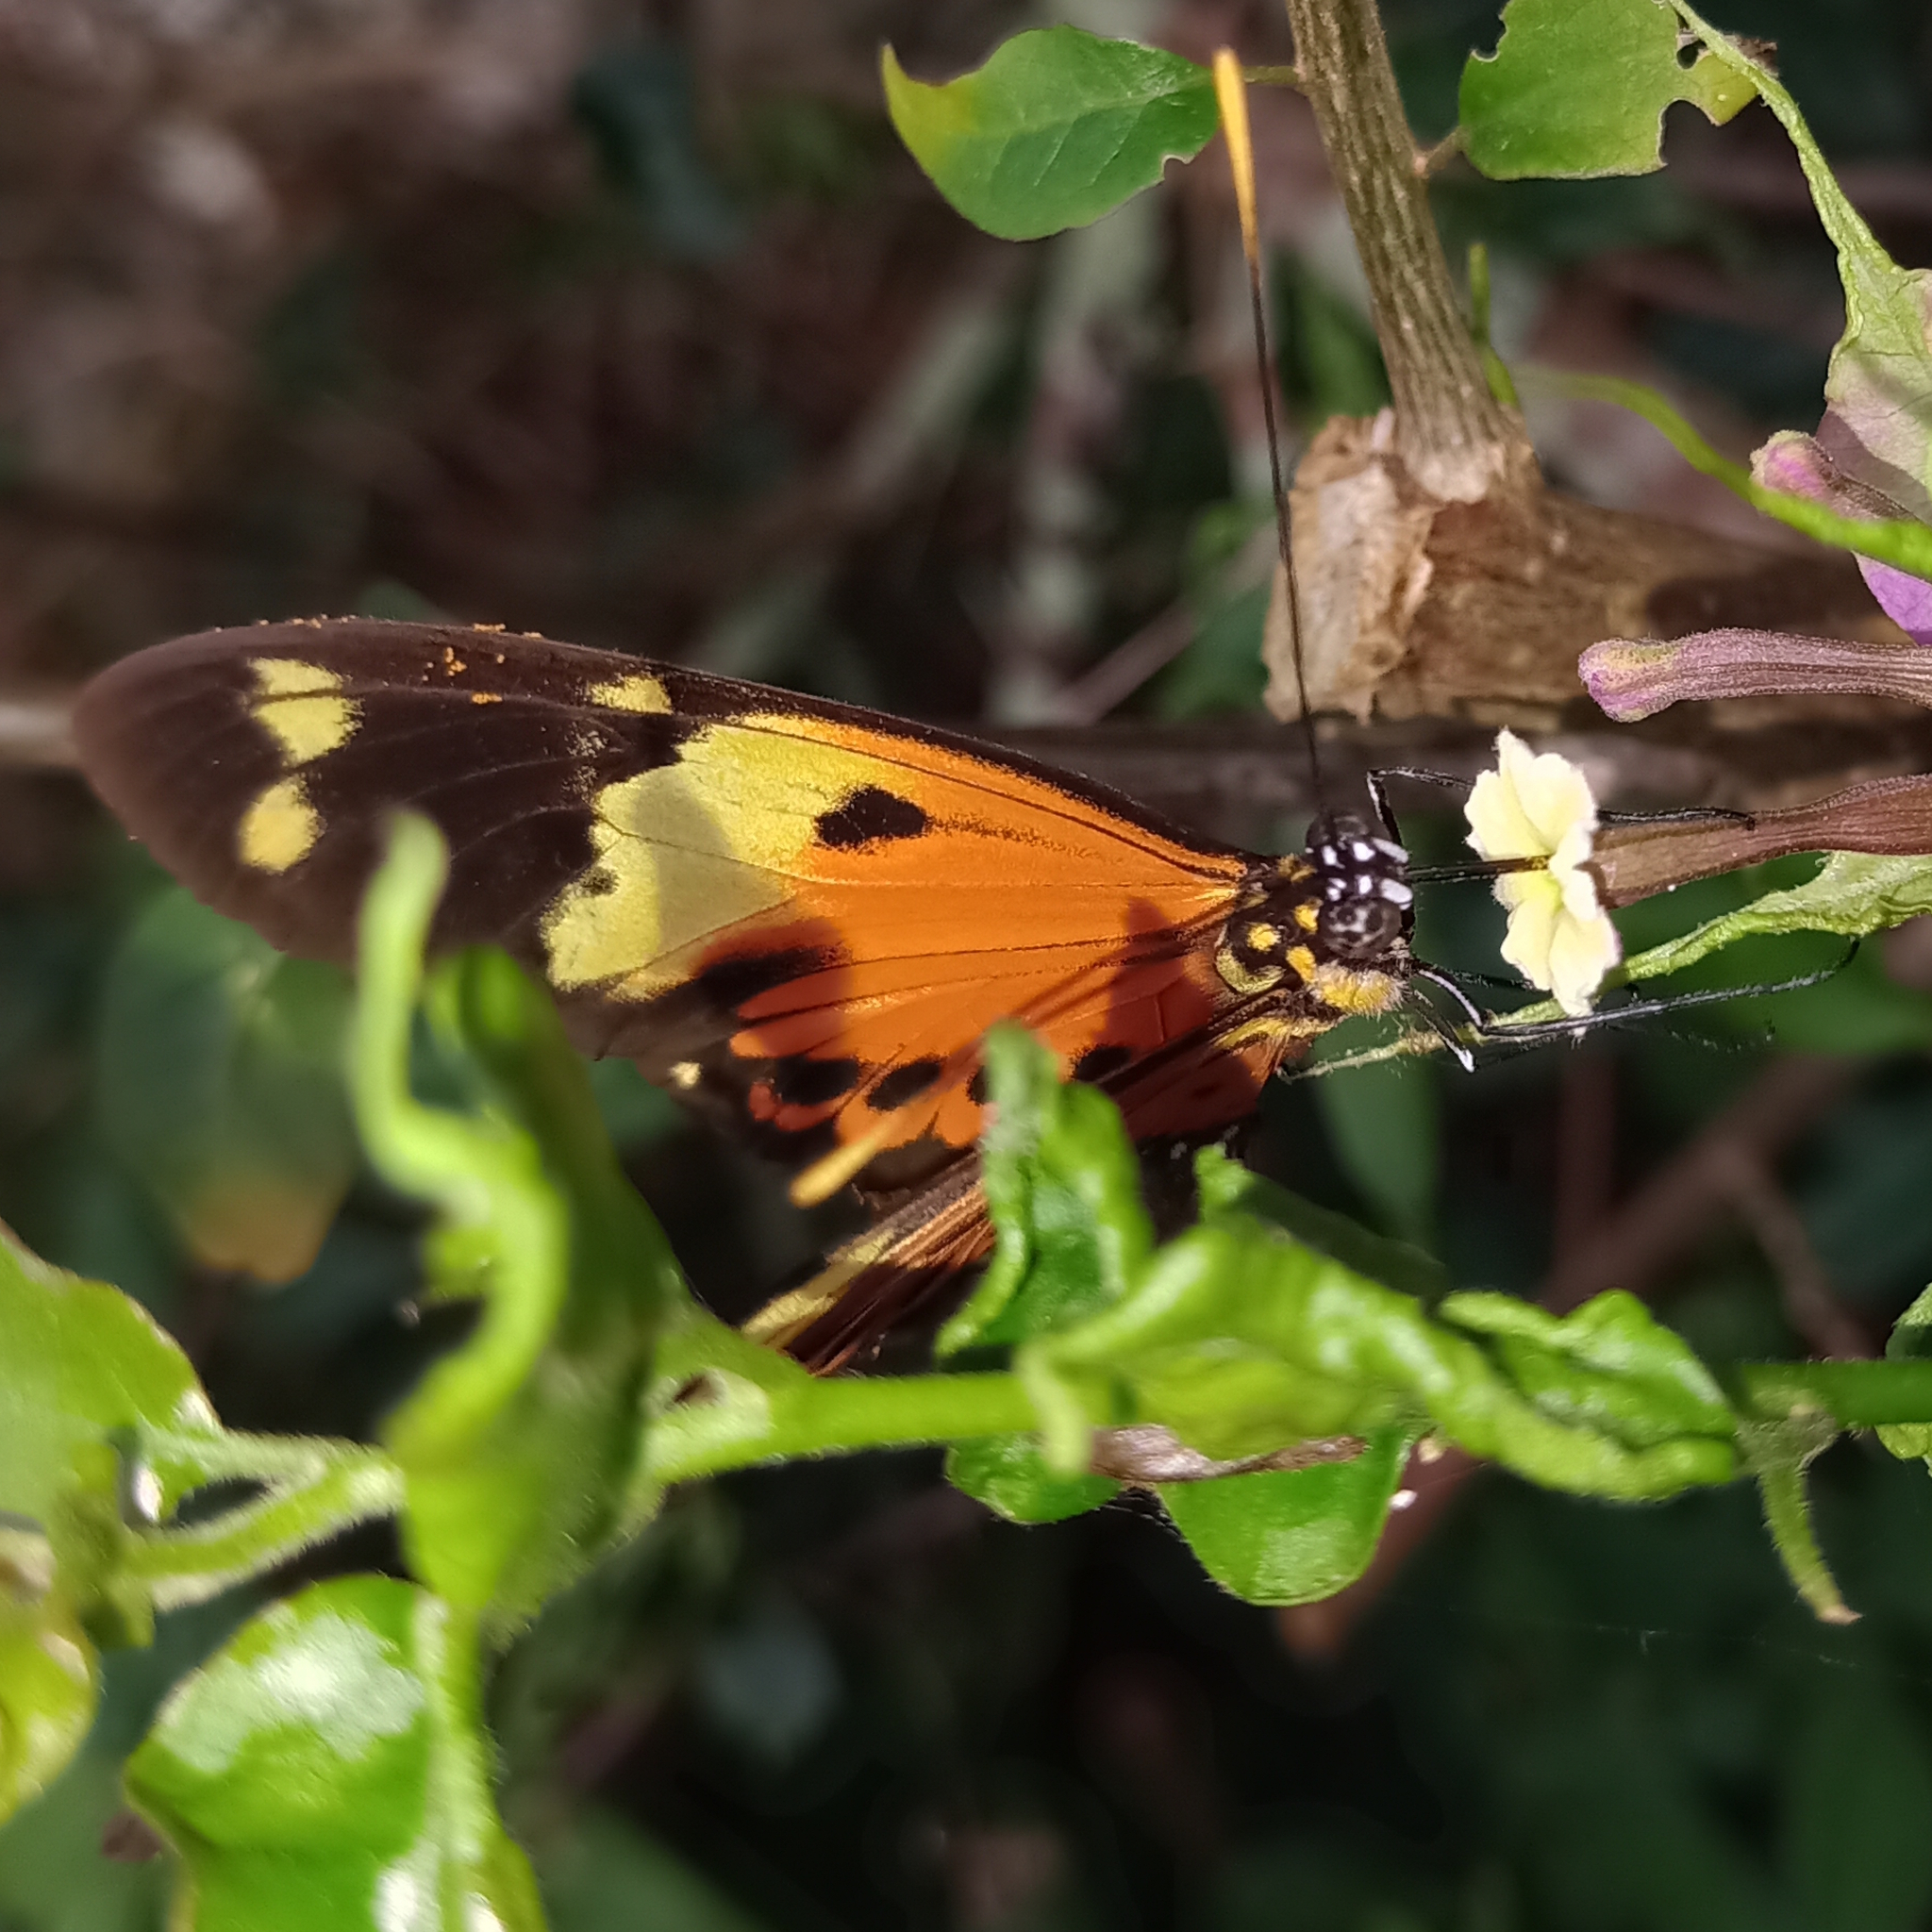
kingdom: Animalia
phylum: Arthropoda
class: Insecta
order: Lepidoptera
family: Nymphalidae
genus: Heliconius
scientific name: Heliconius numatus
